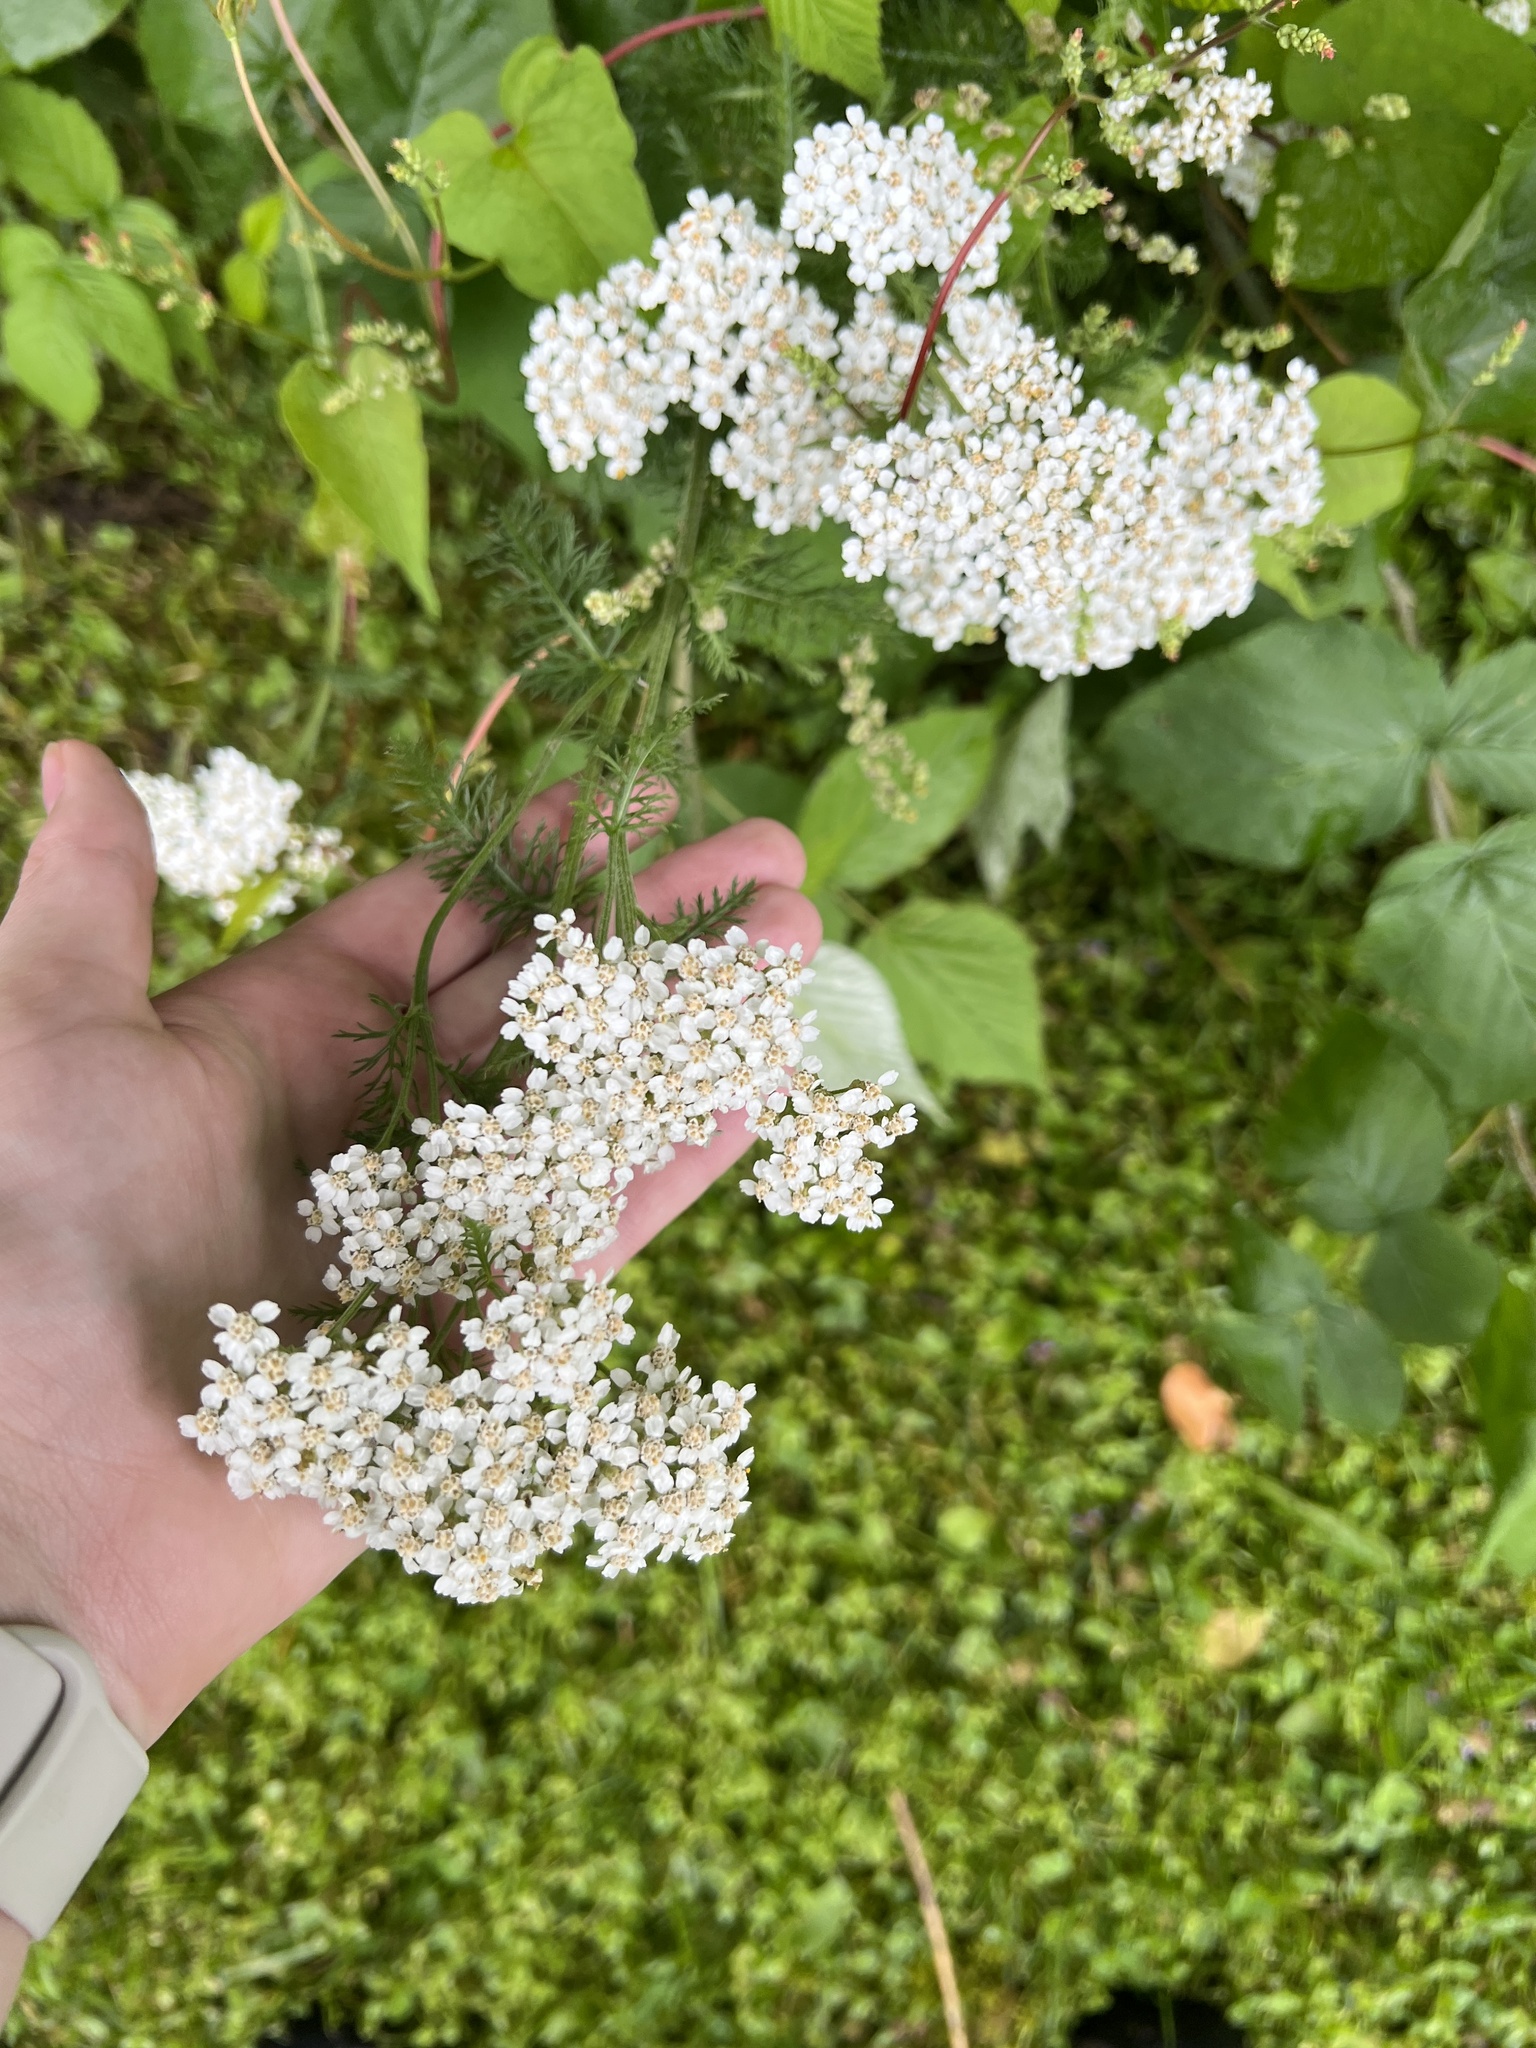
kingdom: Plantae
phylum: Tracheophyta
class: Magnoliopsida
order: Asterales
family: Asteraceae
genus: Achillea
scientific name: Achillea millefolium
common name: Yarrow
